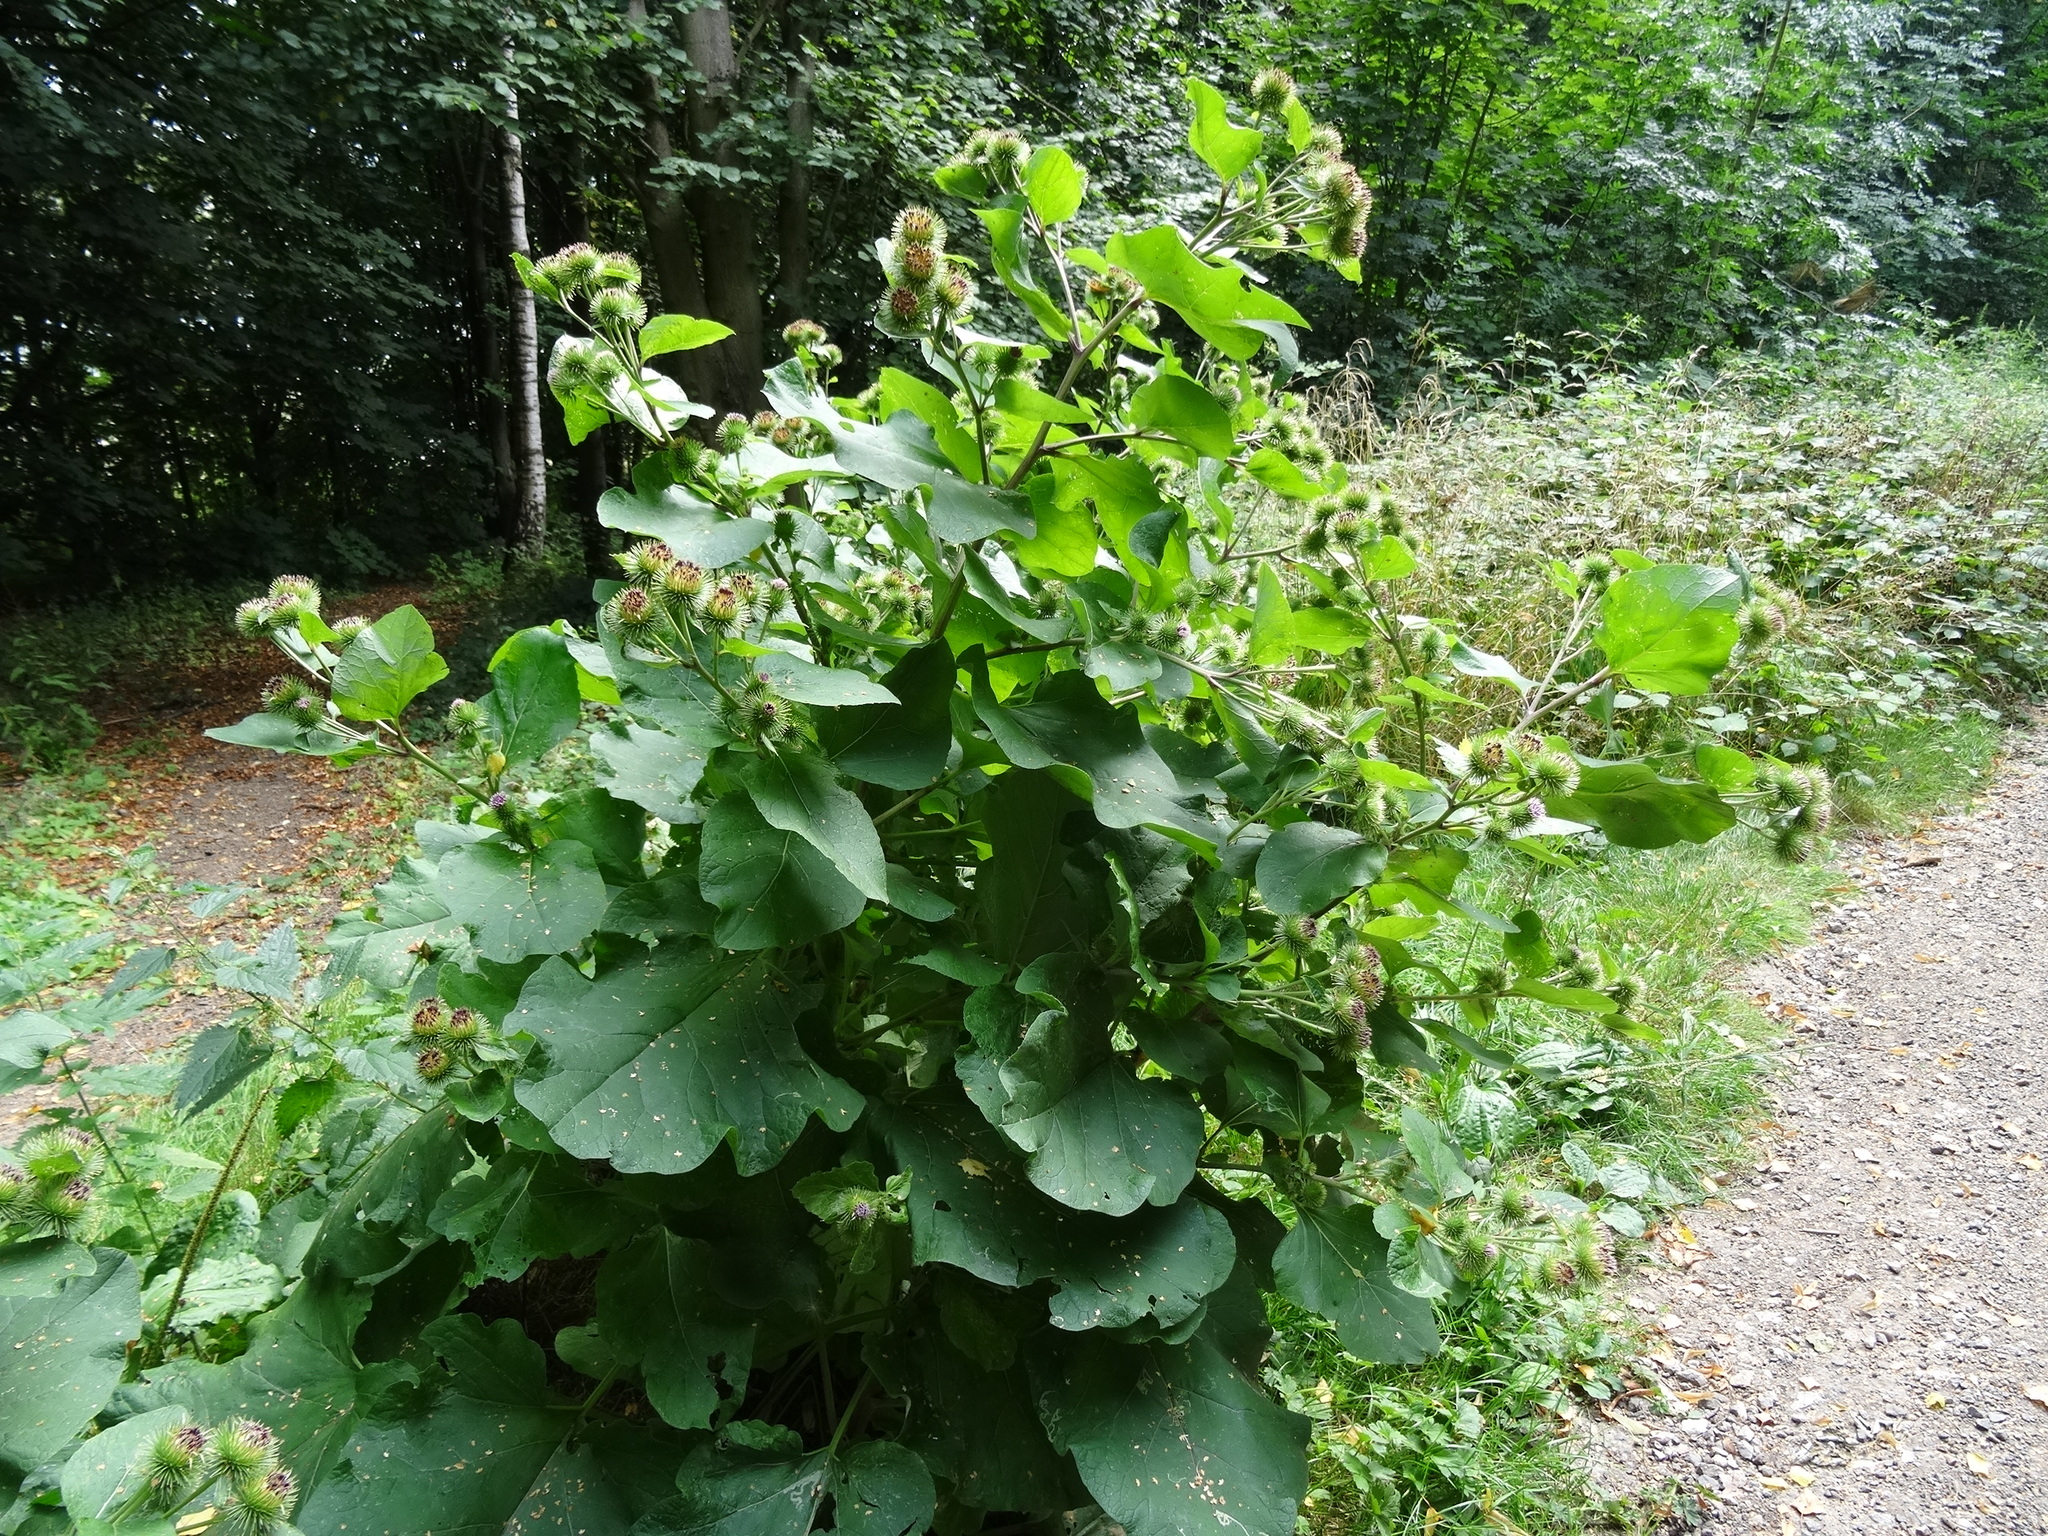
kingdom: Plantae
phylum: Tracheophyta
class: Magnoliopsida
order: Asterales
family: Asteraceae
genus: Arctium
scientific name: Arctium lappa
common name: Greater burdock
